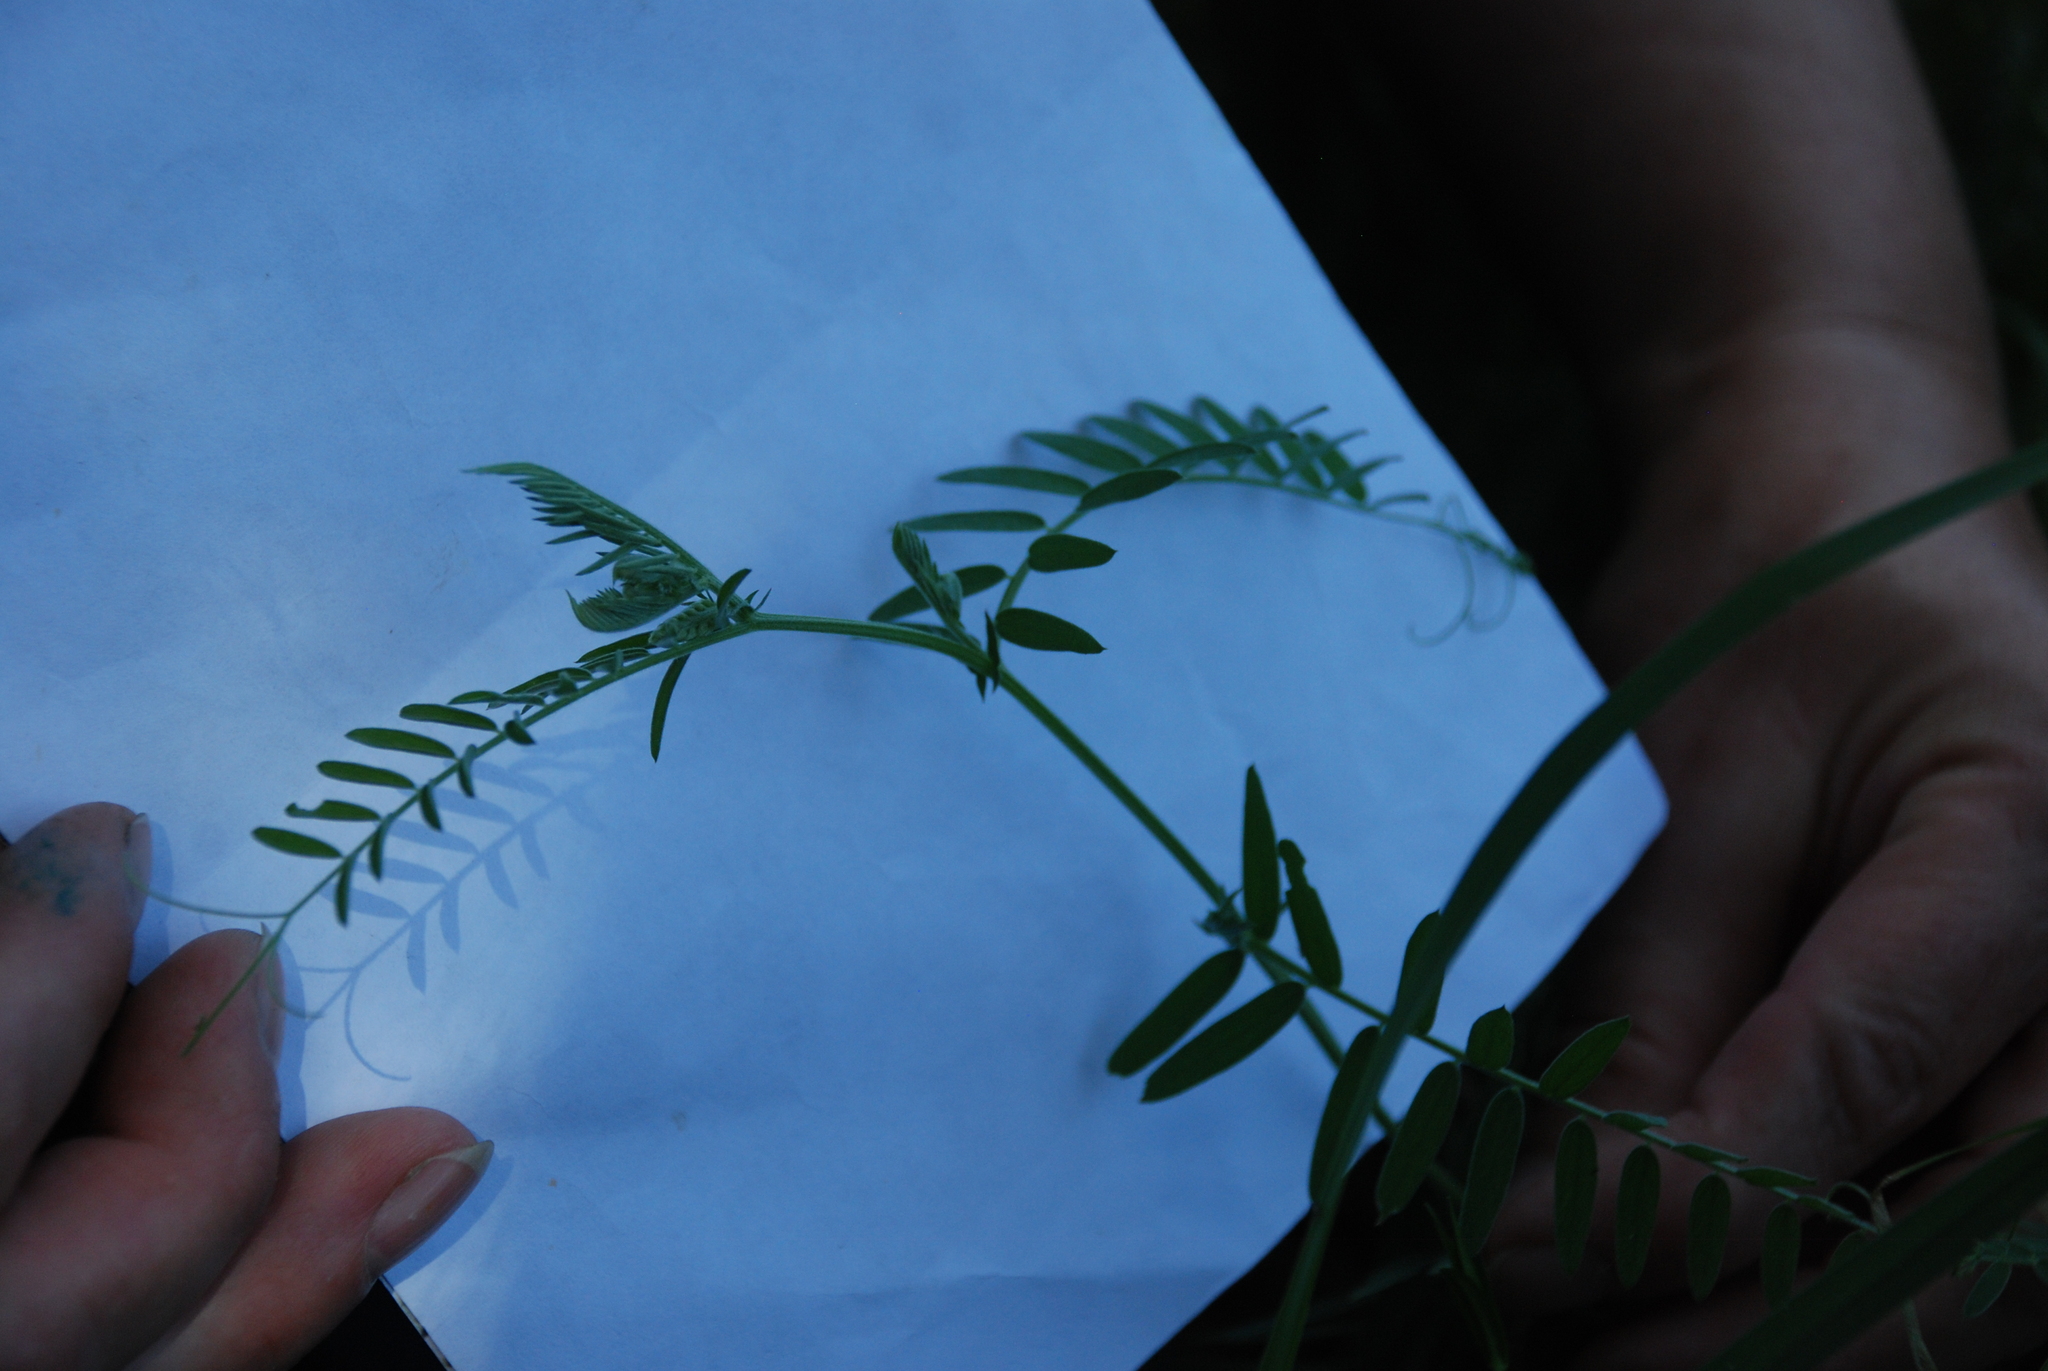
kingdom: Plantae
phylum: Tracheophyta
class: Magnoliopsida
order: Fabales
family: Fabaceae
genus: Vicia
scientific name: Vicia cracca
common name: Bird vetch
